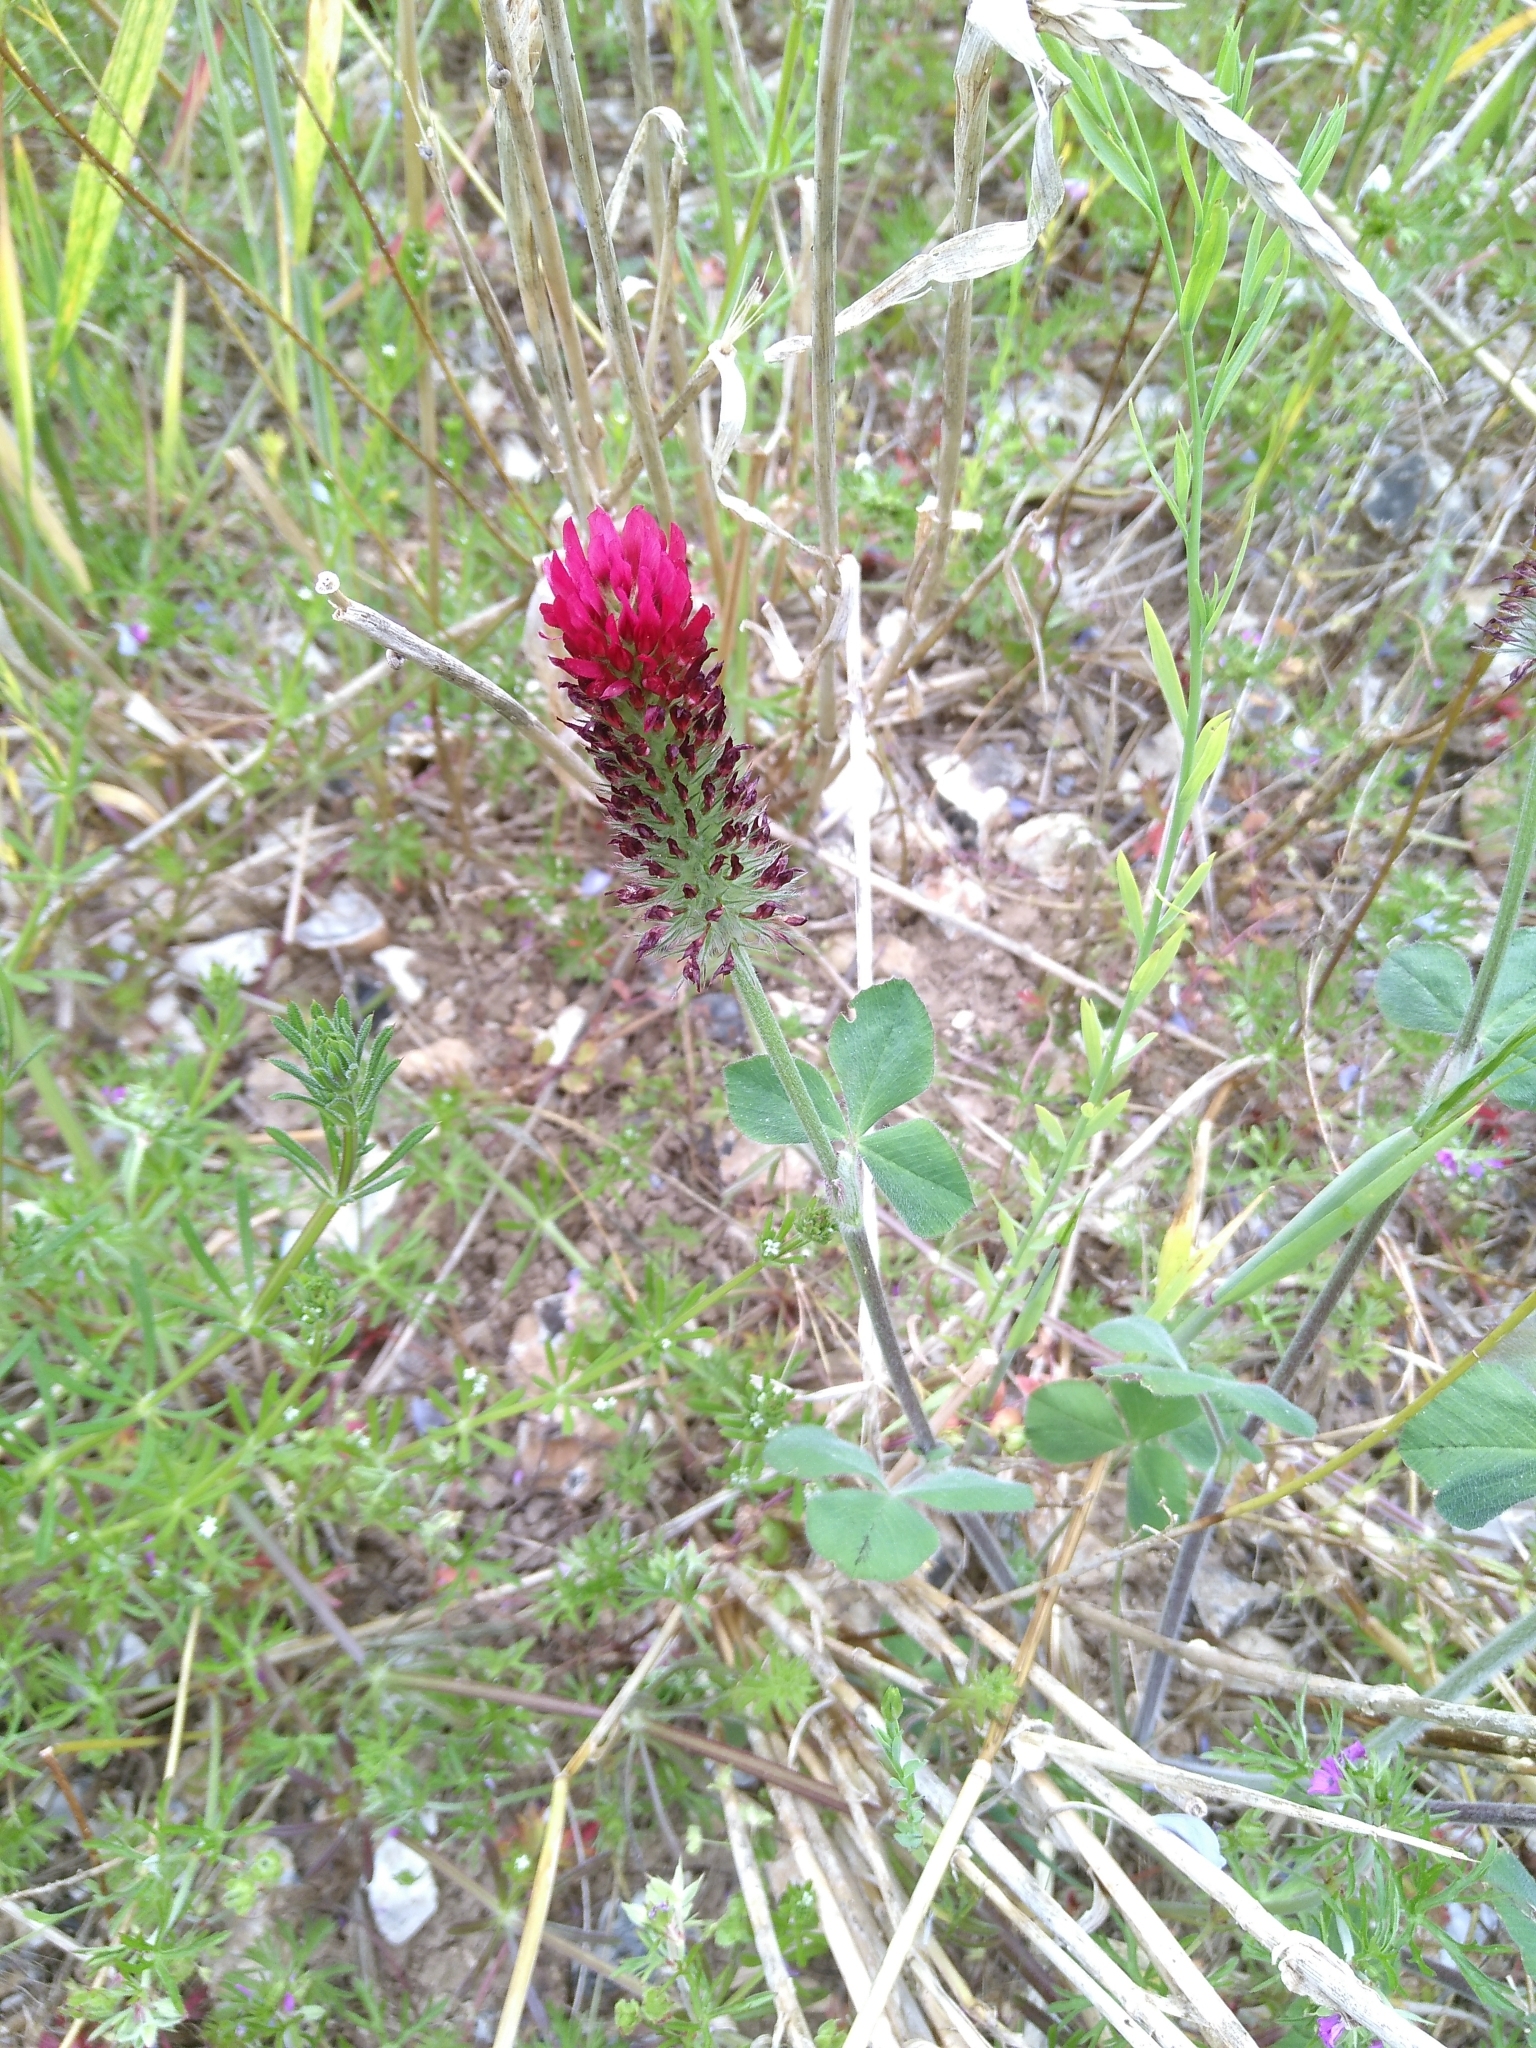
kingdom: Plantae
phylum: Tracheophyta
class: Magnoliopsida
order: Fabales
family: Fabaceae
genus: Trifolium
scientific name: Trifolium incarnatum
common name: Crimson clover
